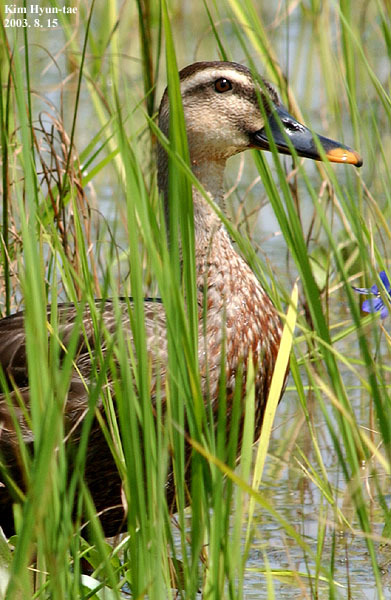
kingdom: Animalia
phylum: Chordata
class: Aves
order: Anseriformes
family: Anatidae
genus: Anas
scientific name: Anas zonorhyncha
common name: Eastern spot-billed duck
